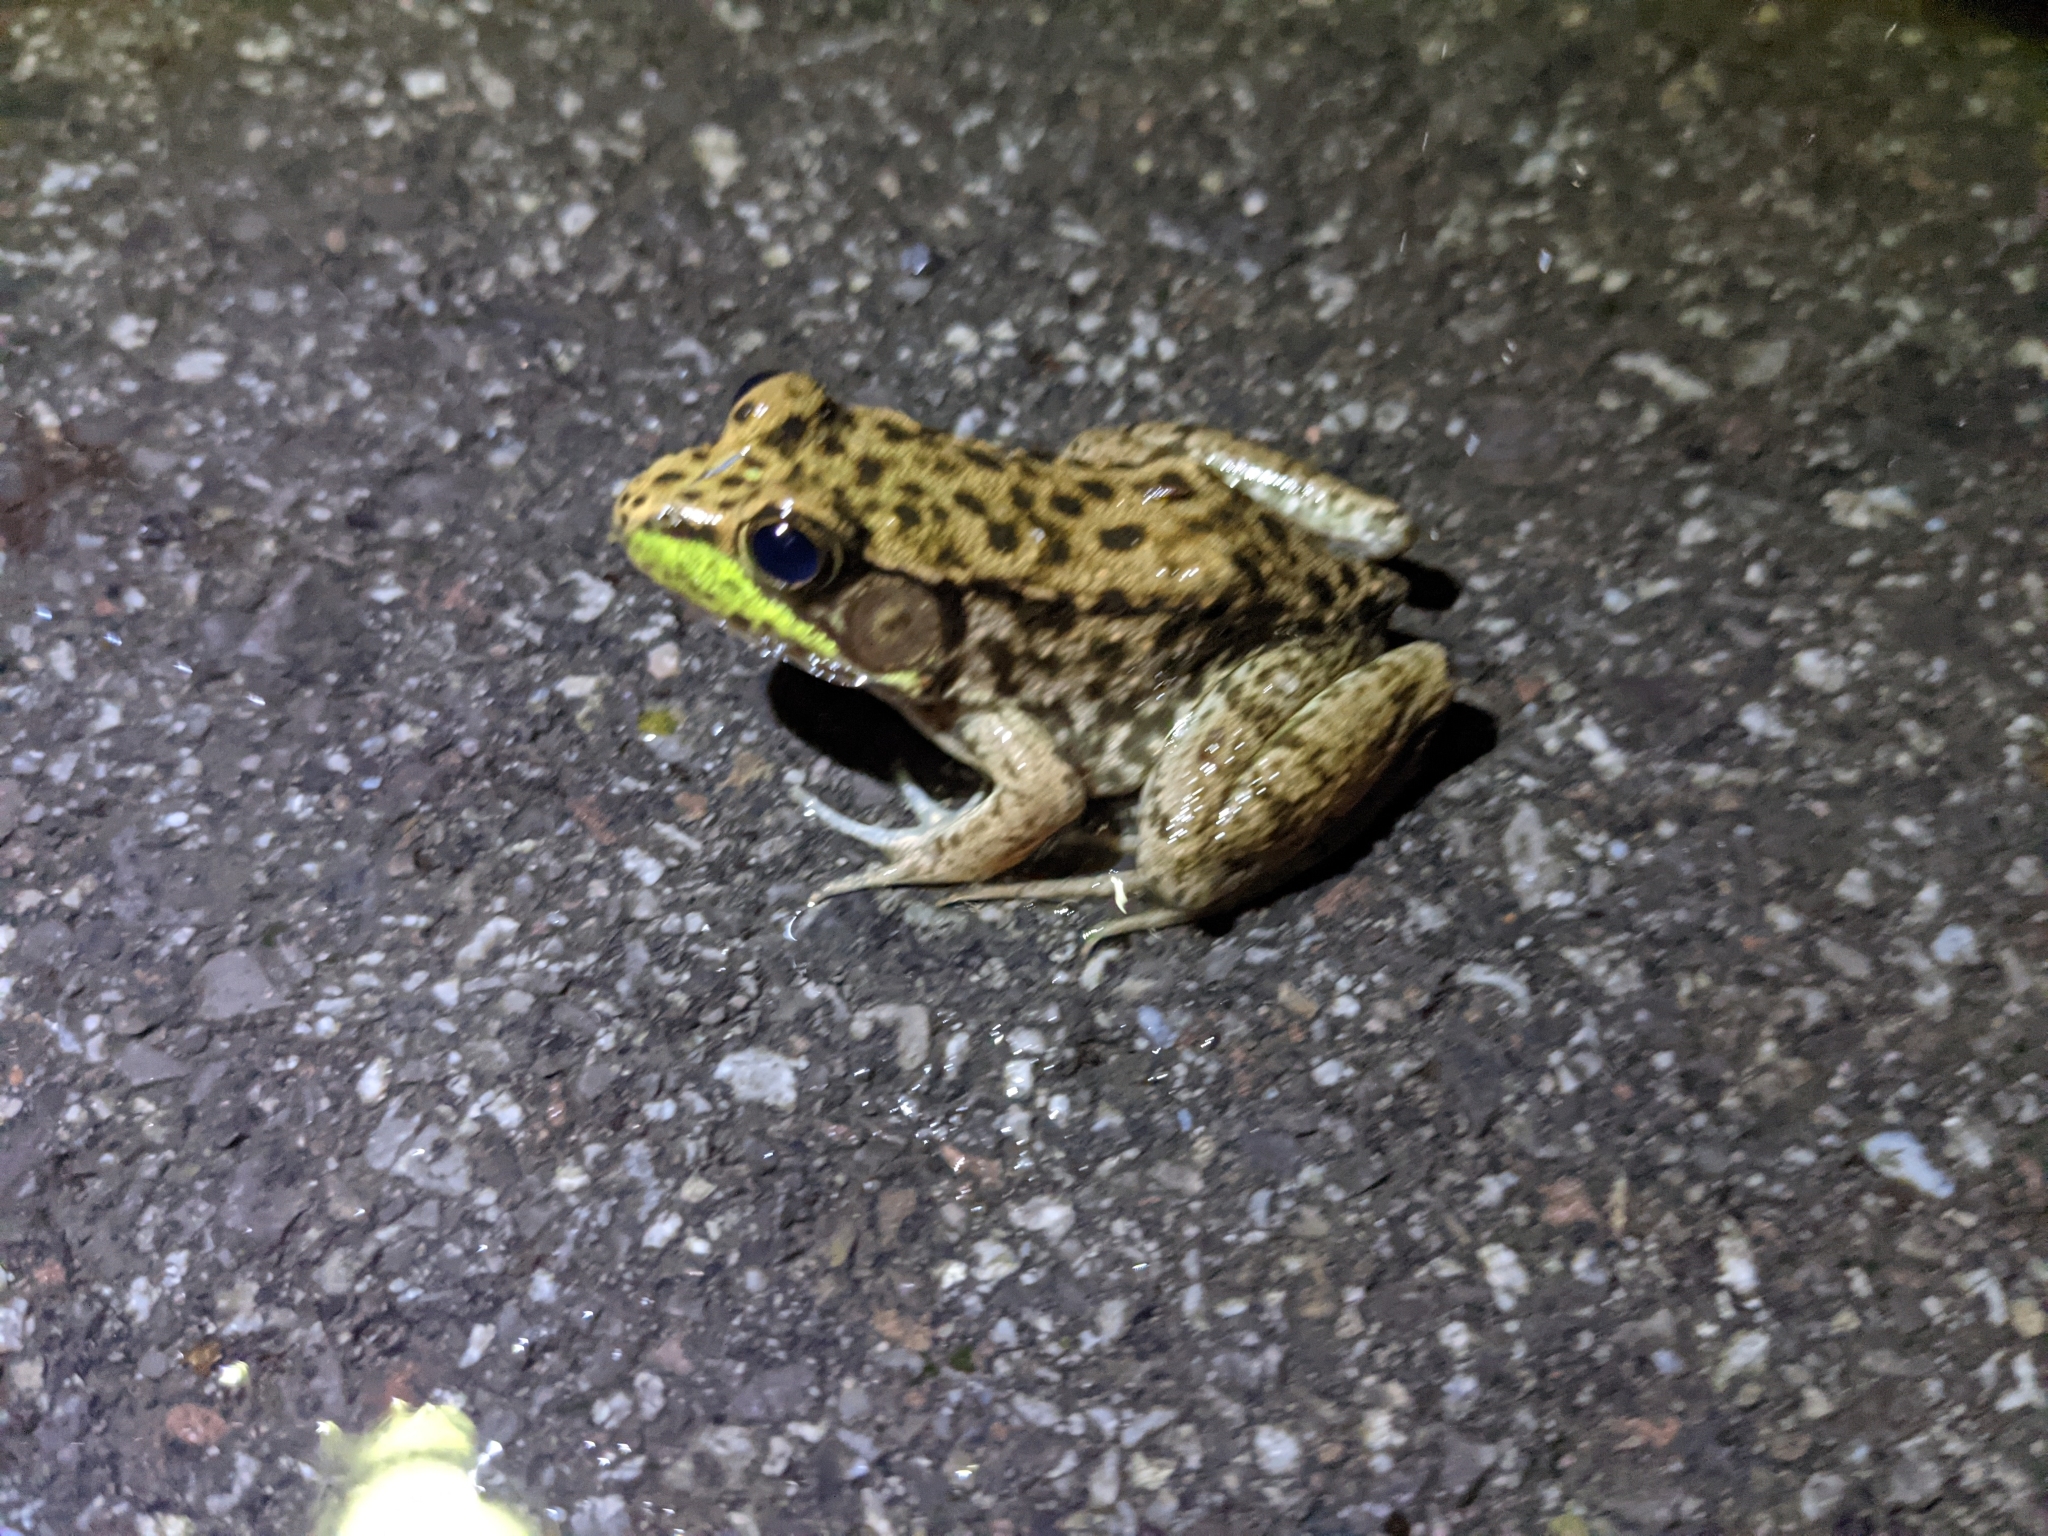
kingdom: Animalia
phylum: Chordata
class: Amphibia
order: Anura
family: Ranidae
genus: Lithobates
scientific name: Lithobates clamitans
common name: Green frog
